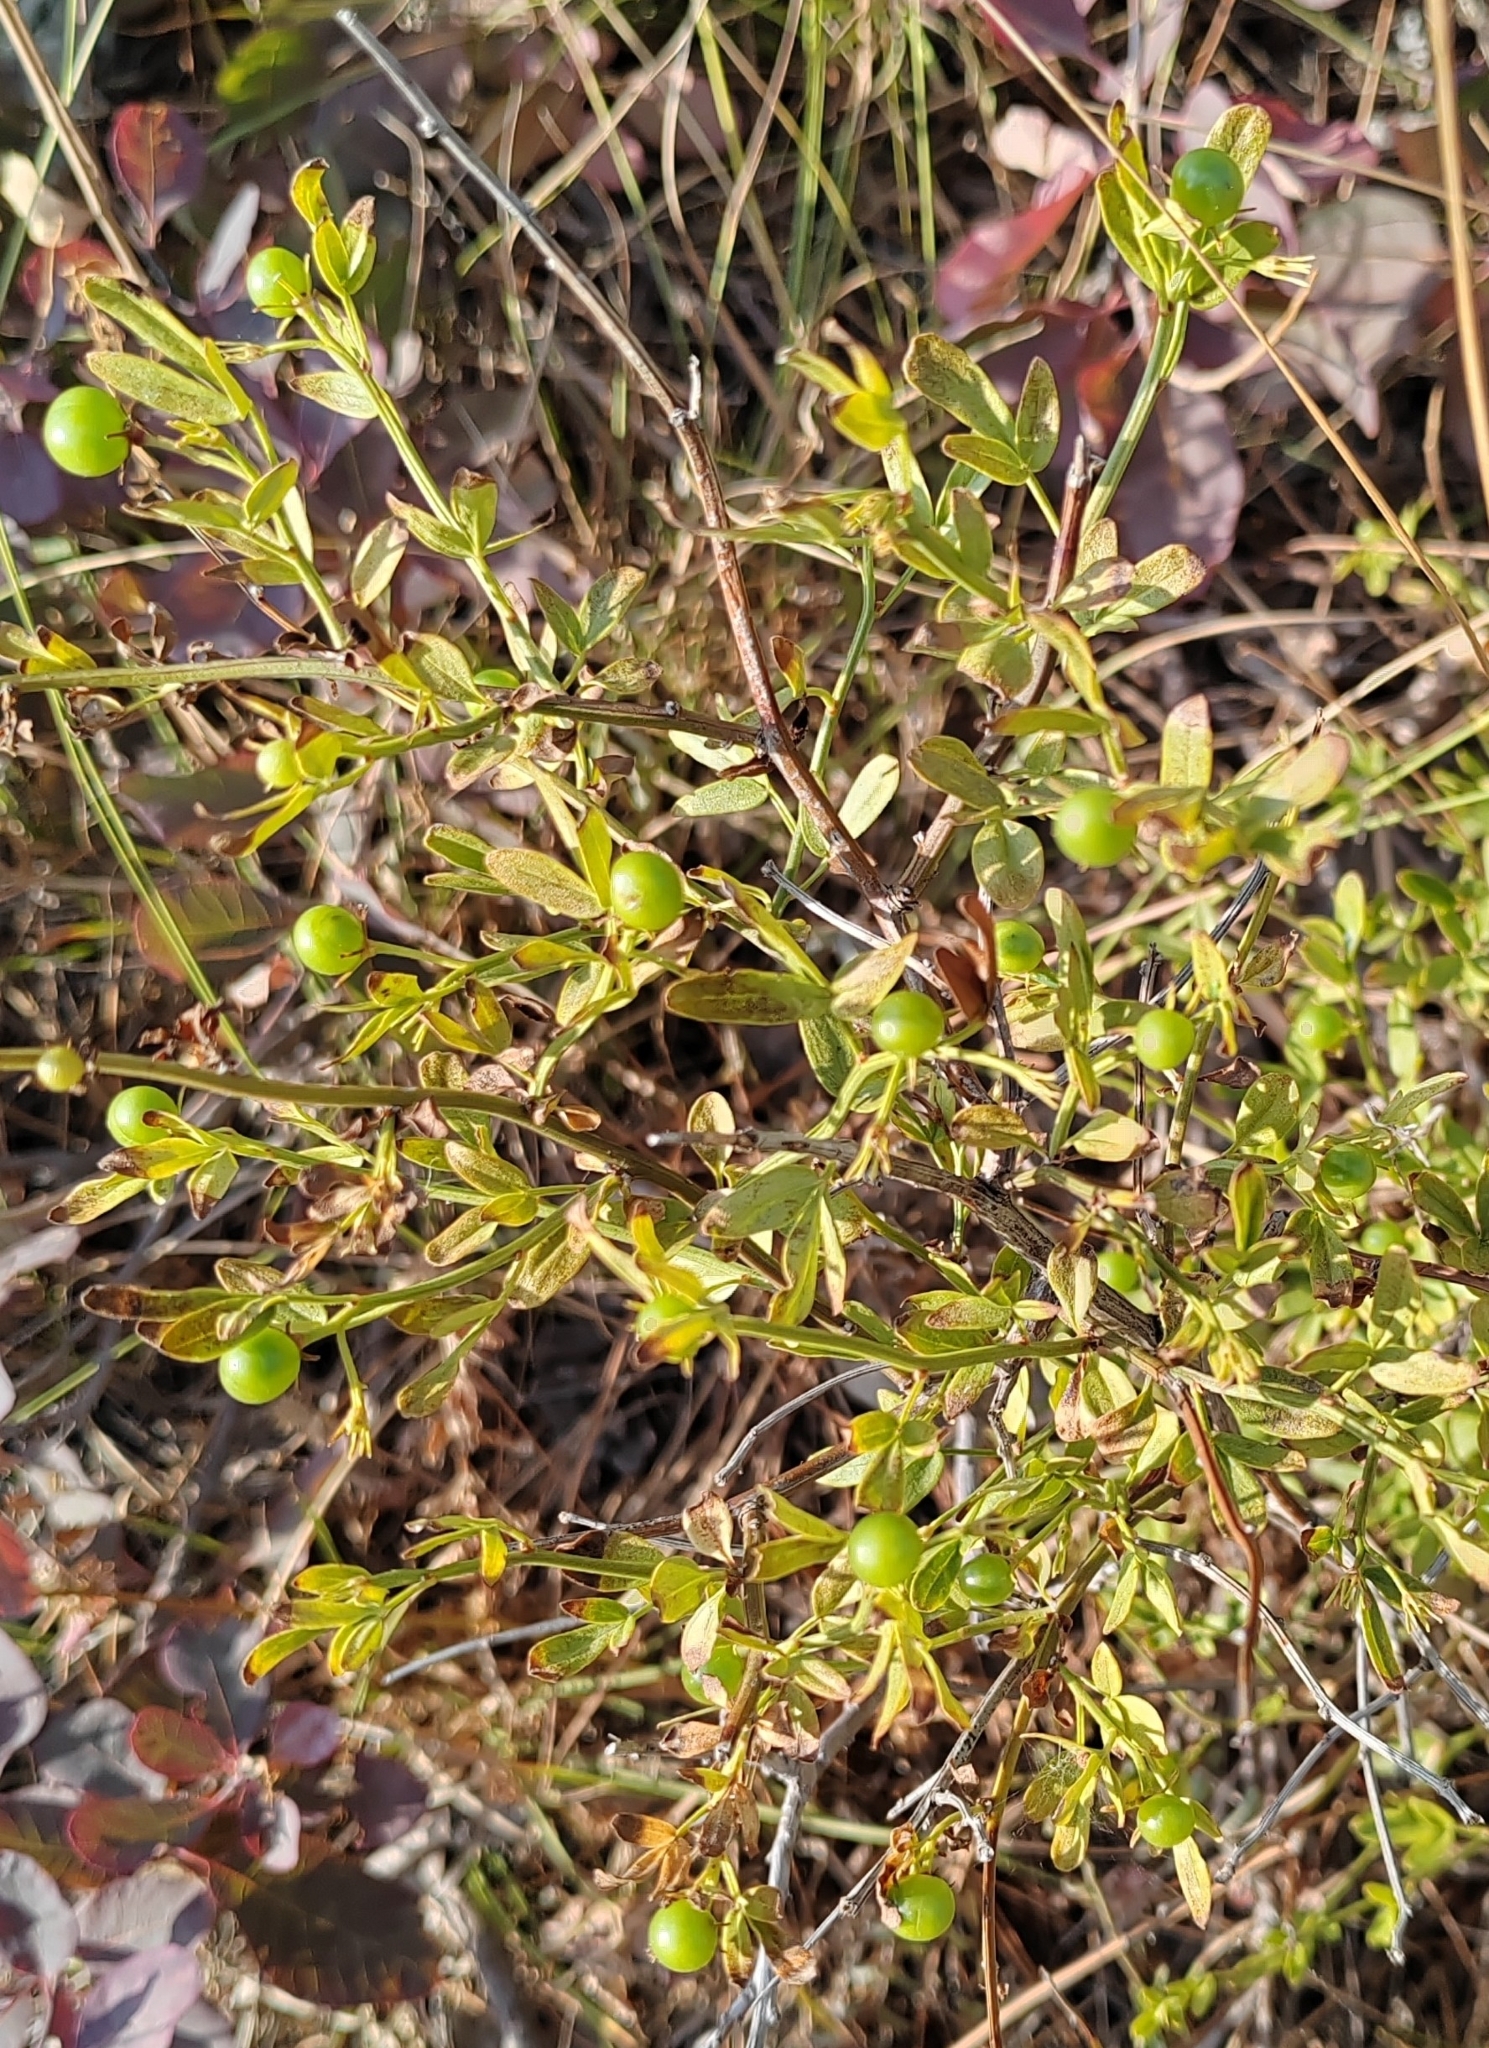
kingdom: Plantae
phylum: Tracheophyta
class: Magnoliopsida
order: Lamiales
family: Oleaceae
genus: Chrysojasminum
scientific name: Chrysojasminum fruticans
